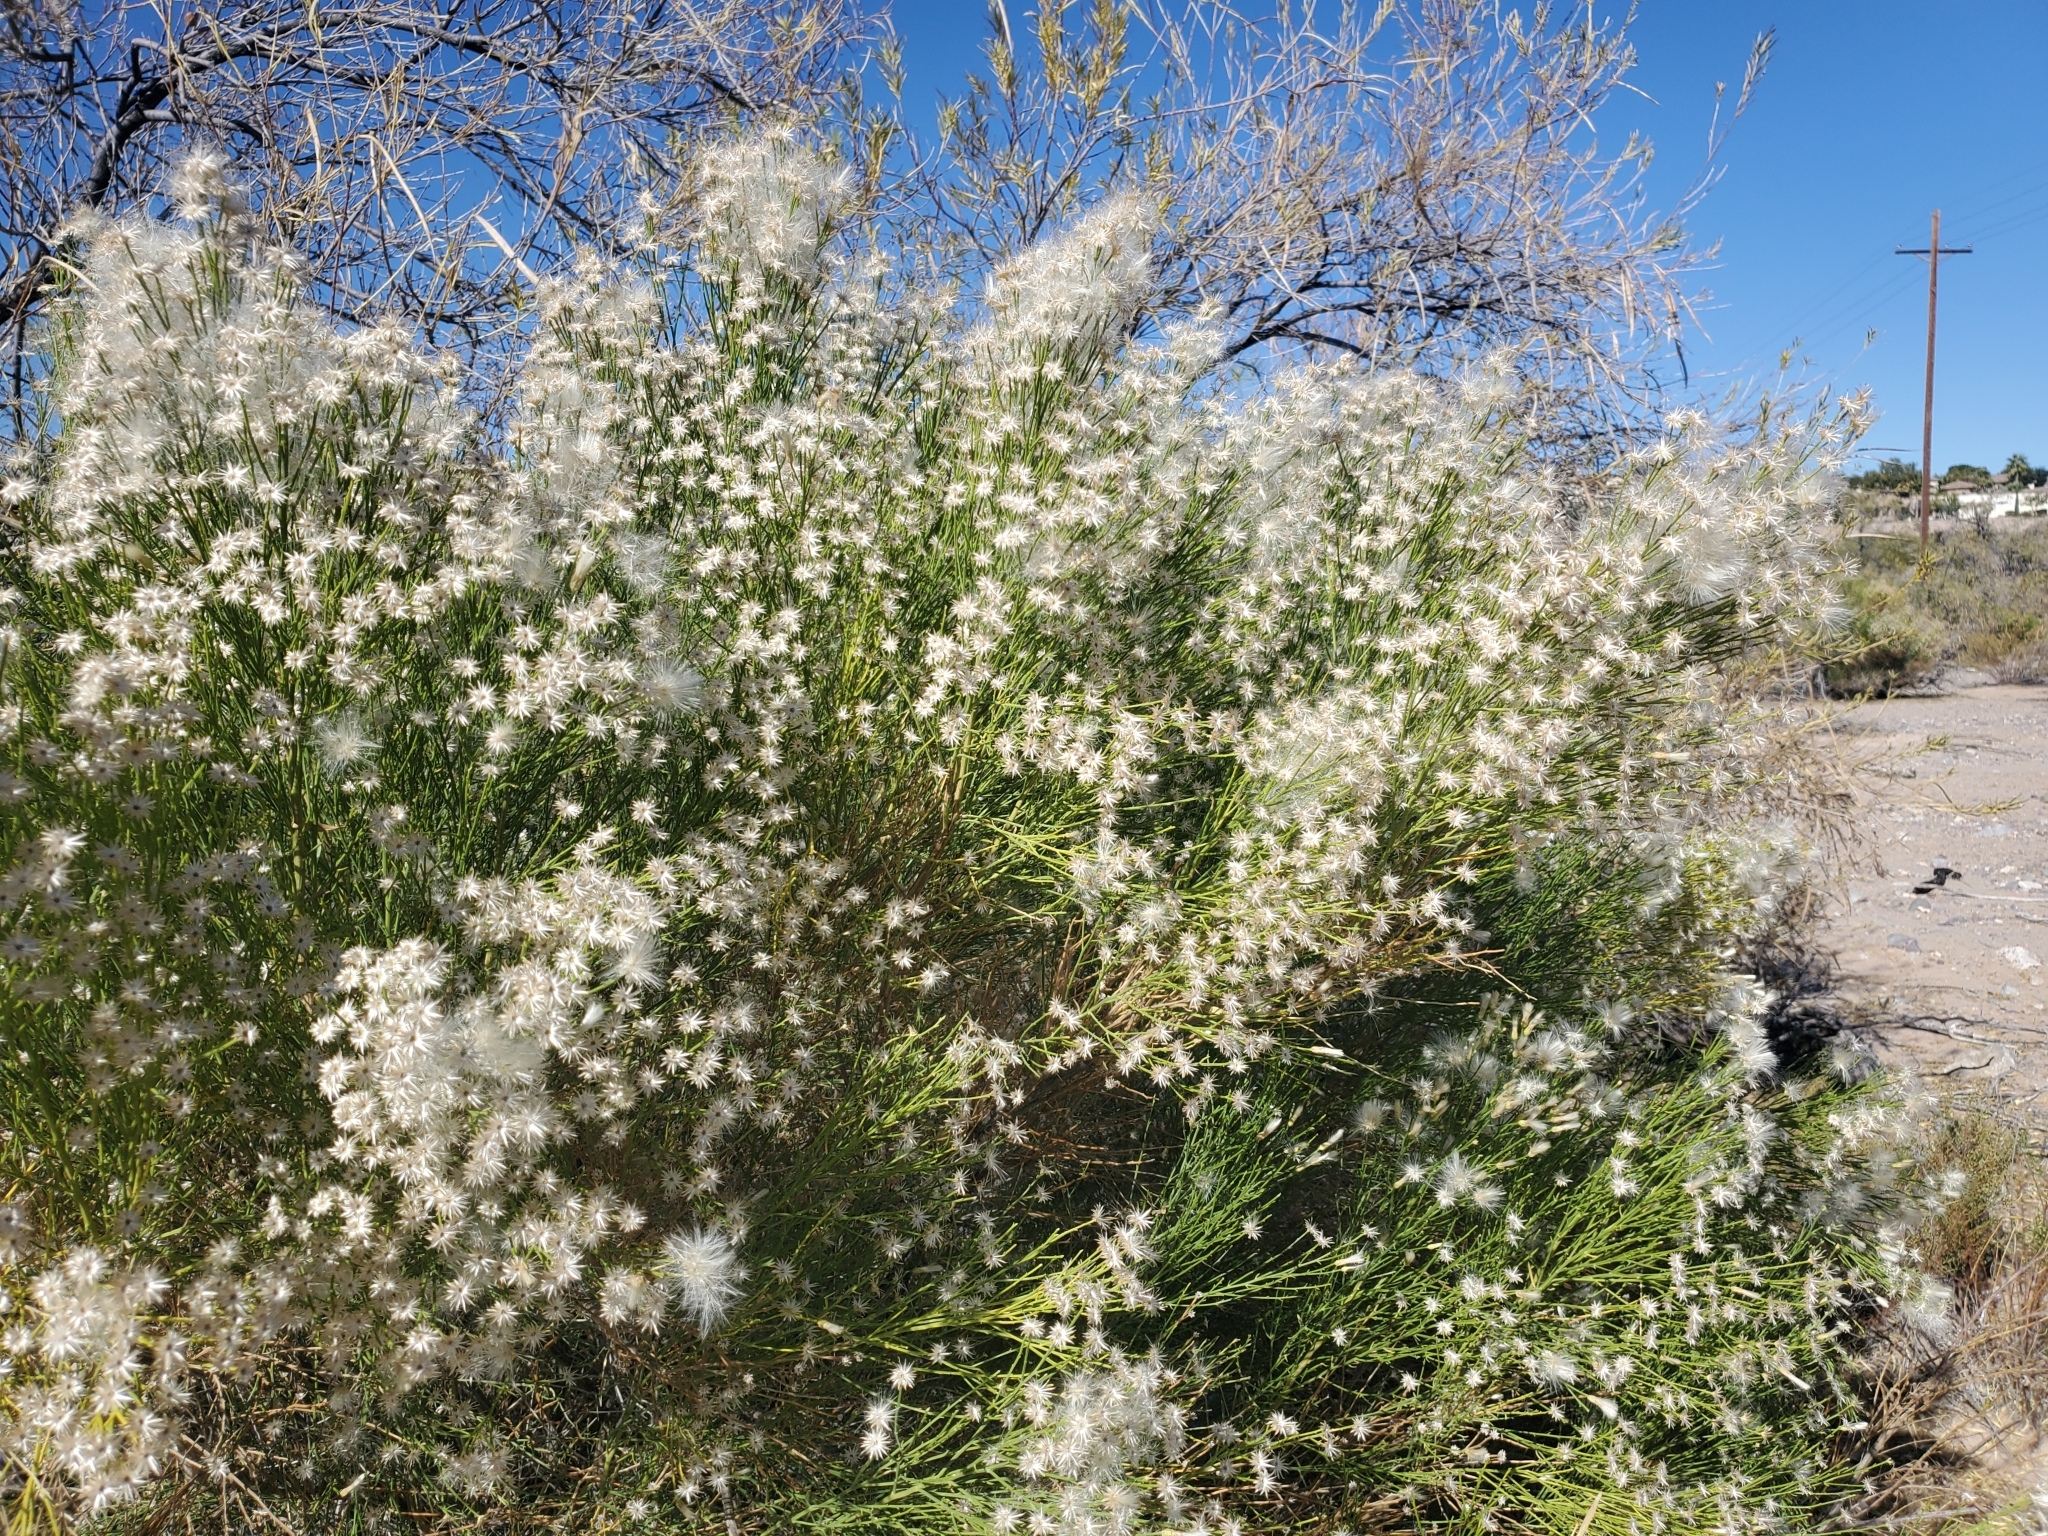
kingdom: Plantae
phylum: Tracheophyta
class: Magnoliopsida
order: Asterales
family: Asteraceae
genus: Baccharis
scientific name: Baccharis sarothroides
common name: Desert-broom
